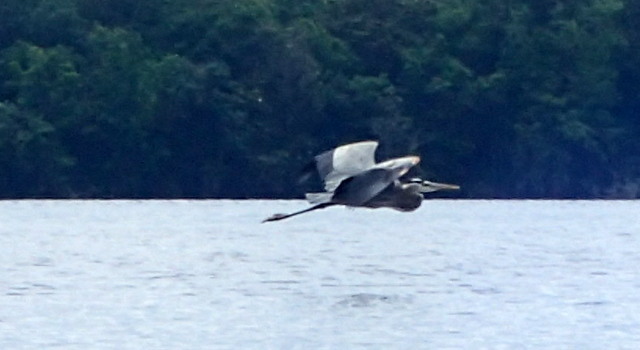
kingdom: Animalia
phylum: Chordata
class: Aves
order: Pelecaniformes
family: Ardeidae
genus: Ardea
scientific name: Ardea herodias
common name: Great blue heron
